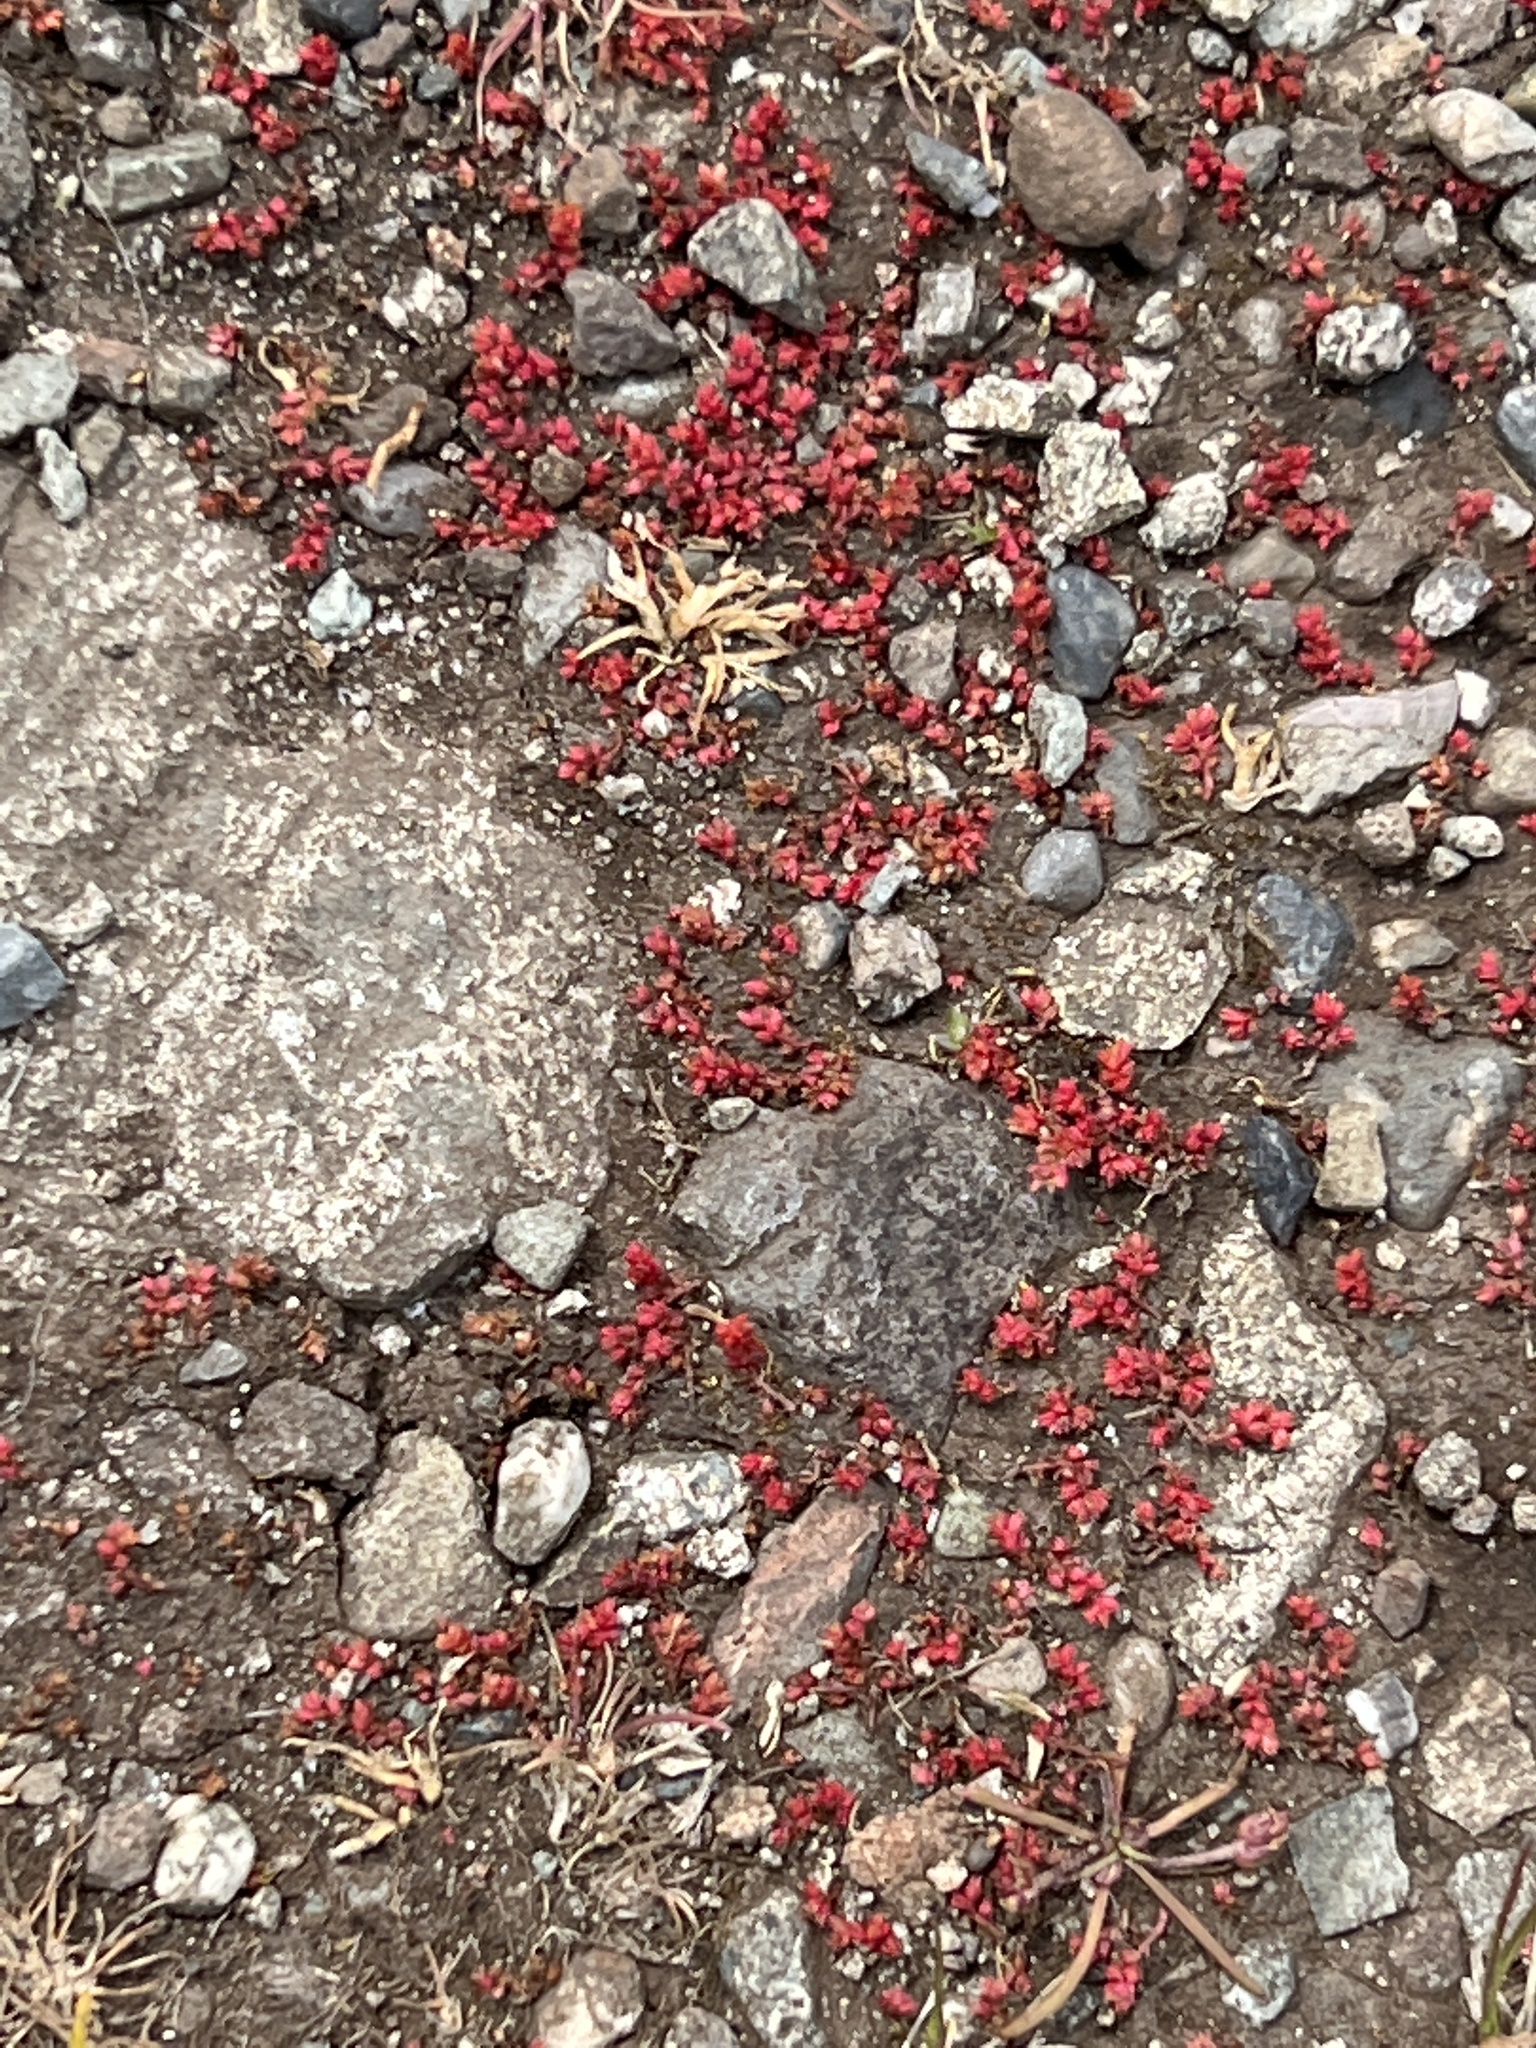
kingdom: Plantae
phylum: Tracheophyta
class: Magnoliopsida
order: Saxifragales
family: Crassulaceae
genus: Crassula
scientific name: Crassula tillaea
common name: Mossy stonecrop
